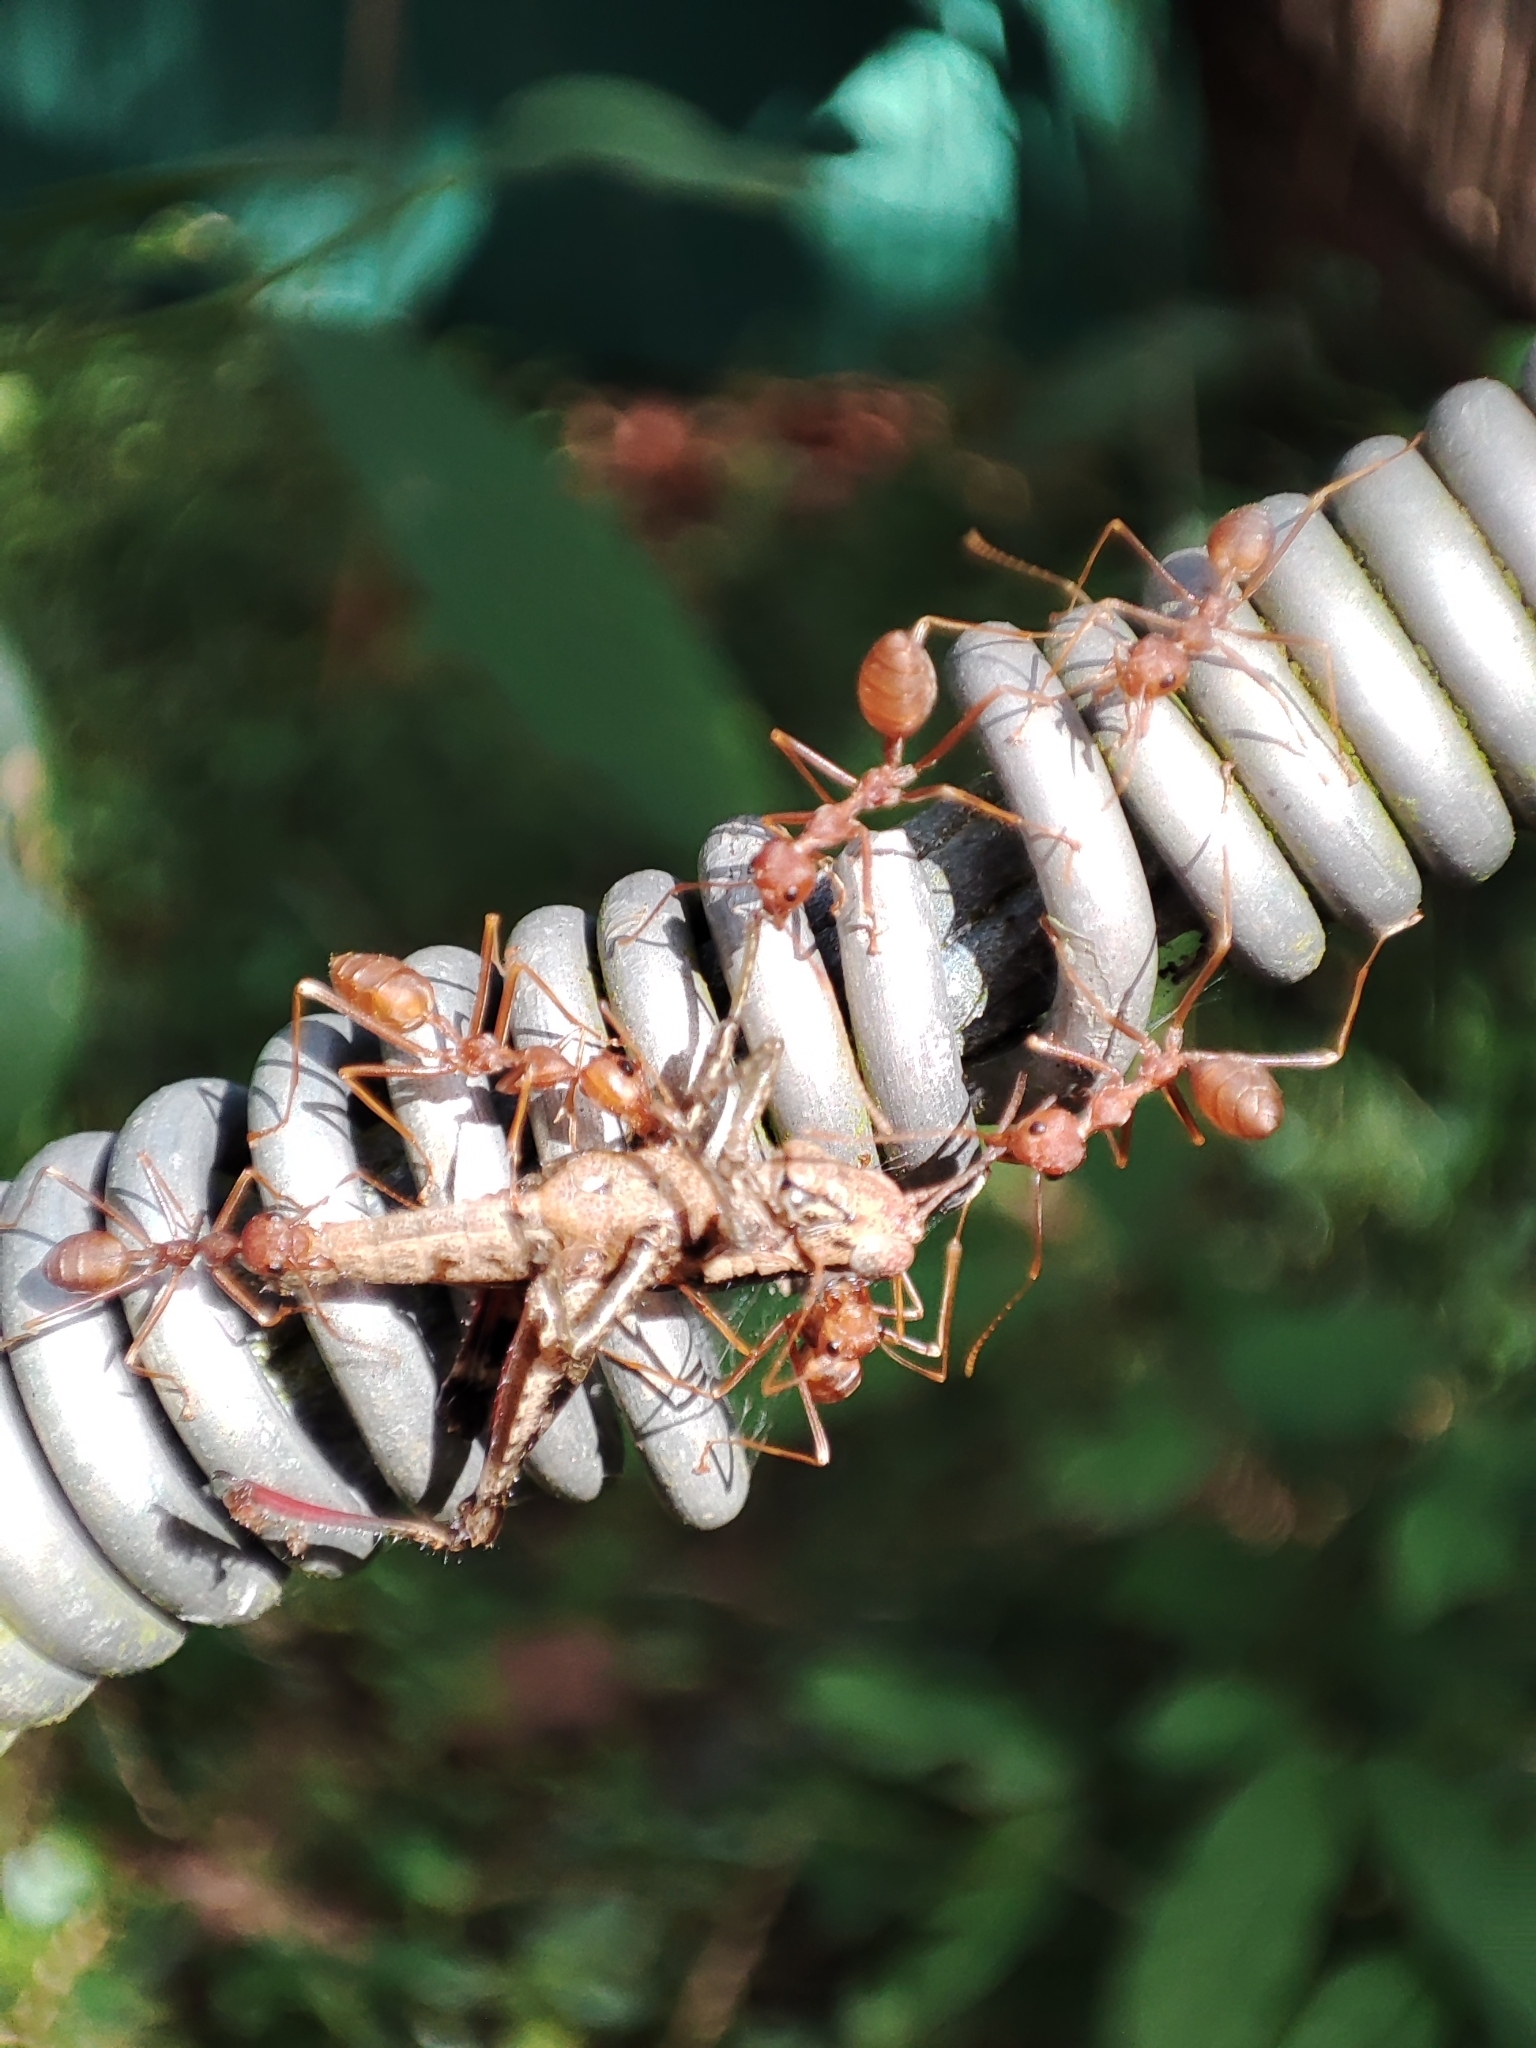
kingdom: Animalia
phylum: Arthropoda
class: Insecta
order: Hymenoptera
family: Formicidae
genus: Oecophylla
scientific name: Oecophylla smaragdina
